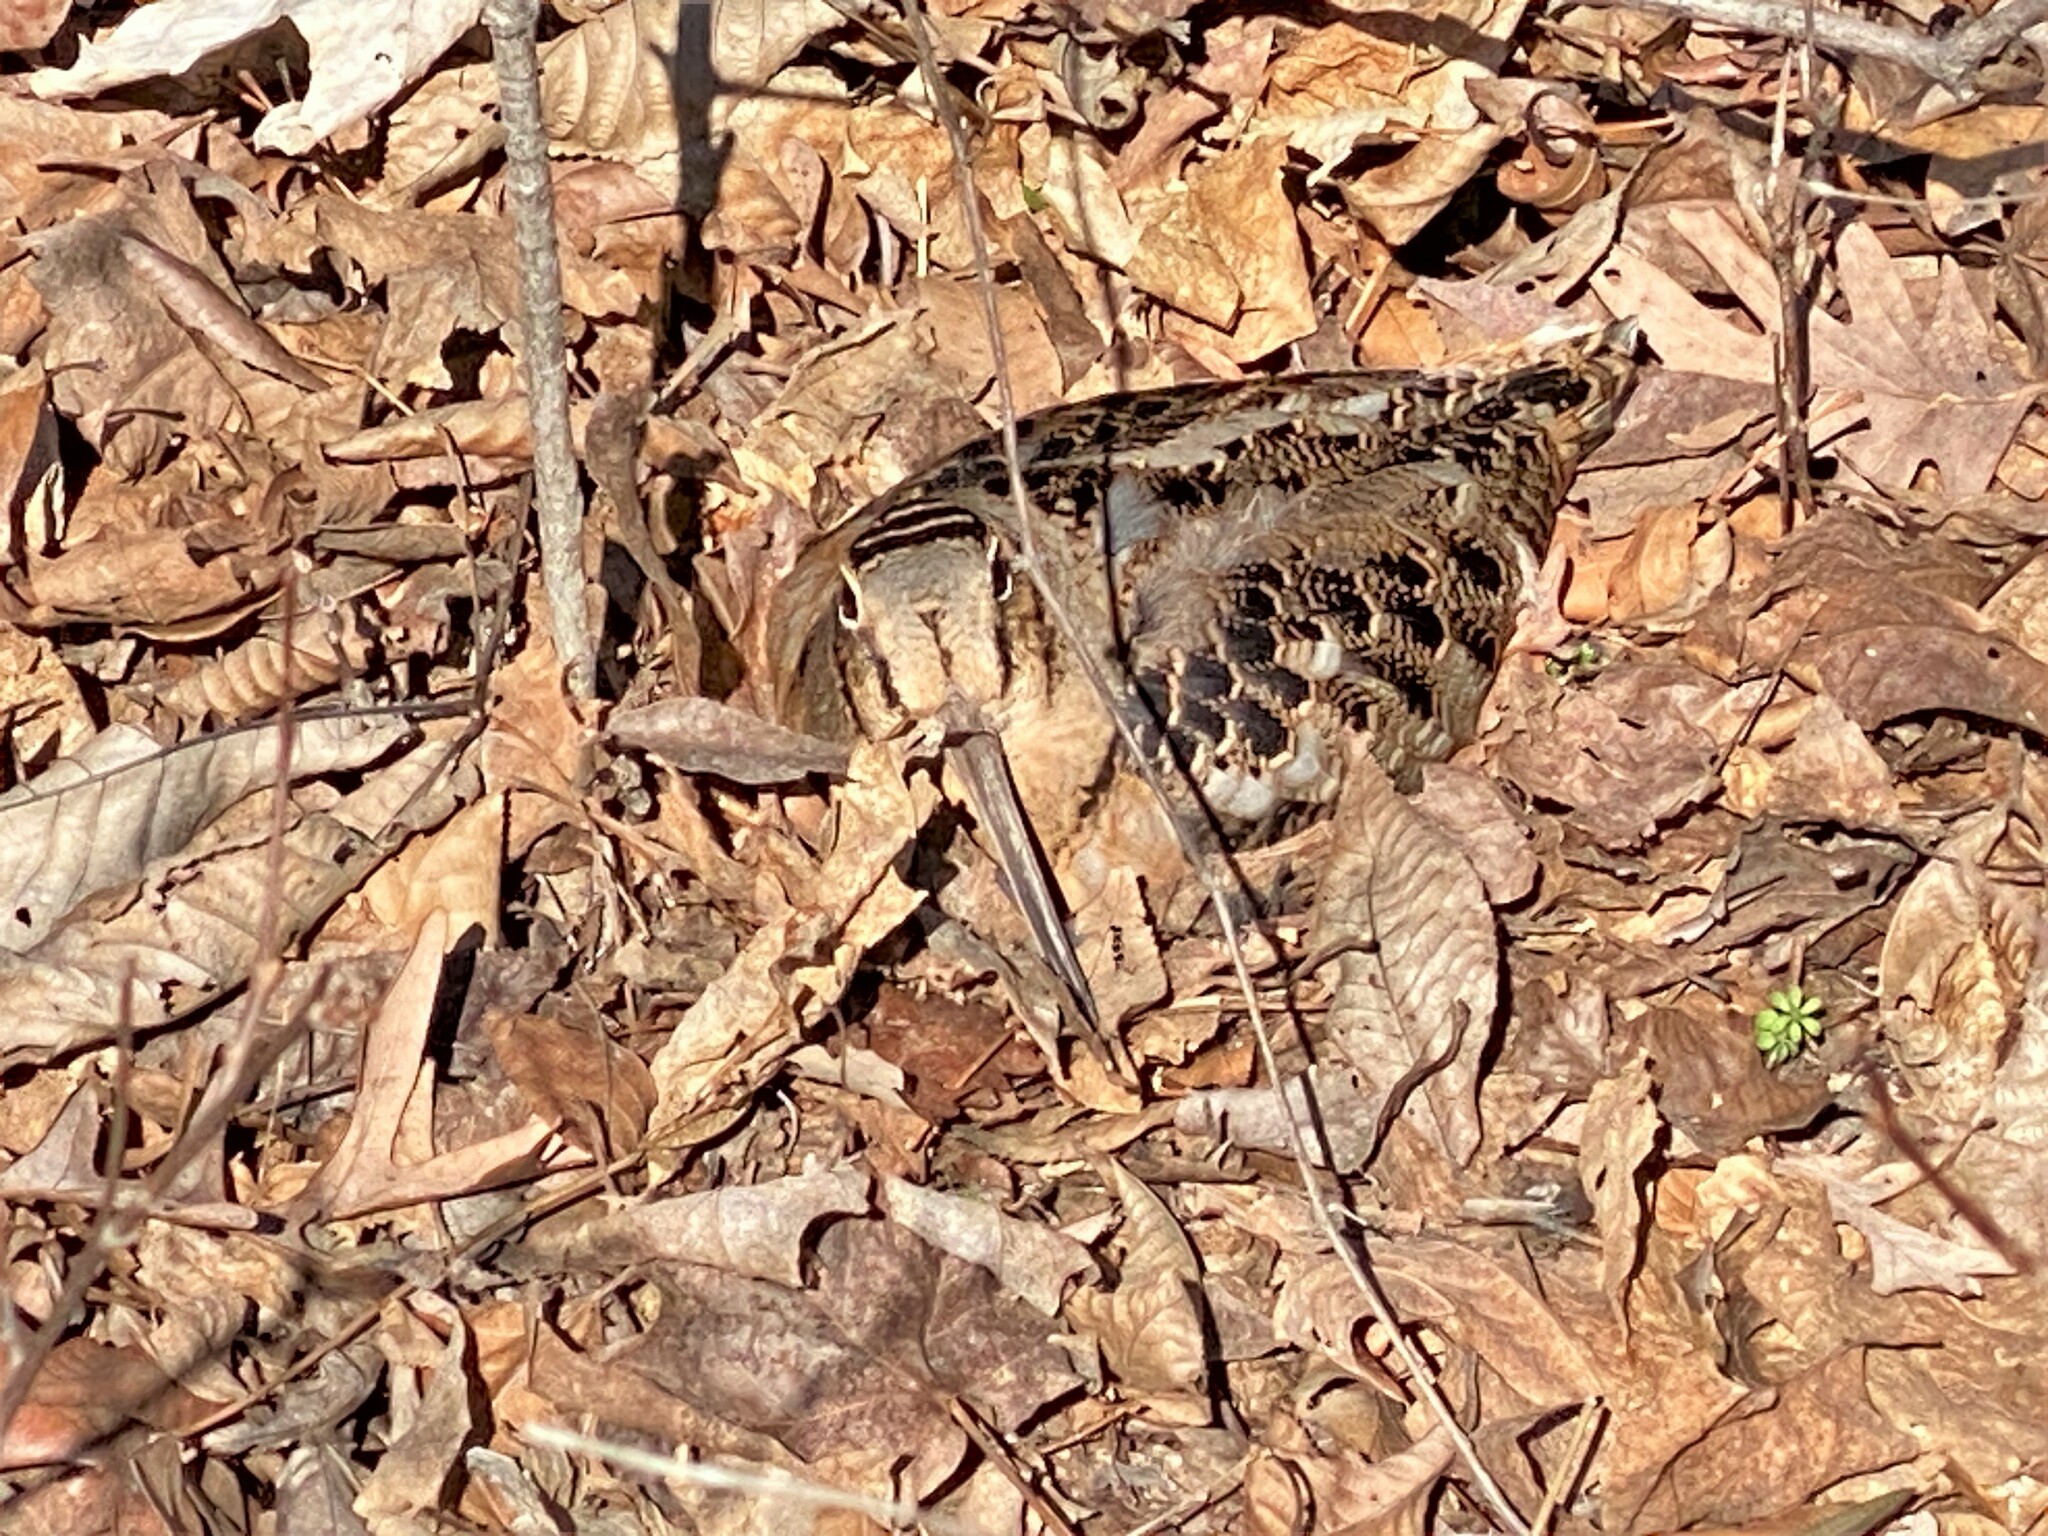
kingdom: Animalia
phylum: Chordata
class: Aves
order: Charadriiformes
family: Scolopacidae
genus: Scolopax
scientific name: Scolopax minor
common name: American woodcock
